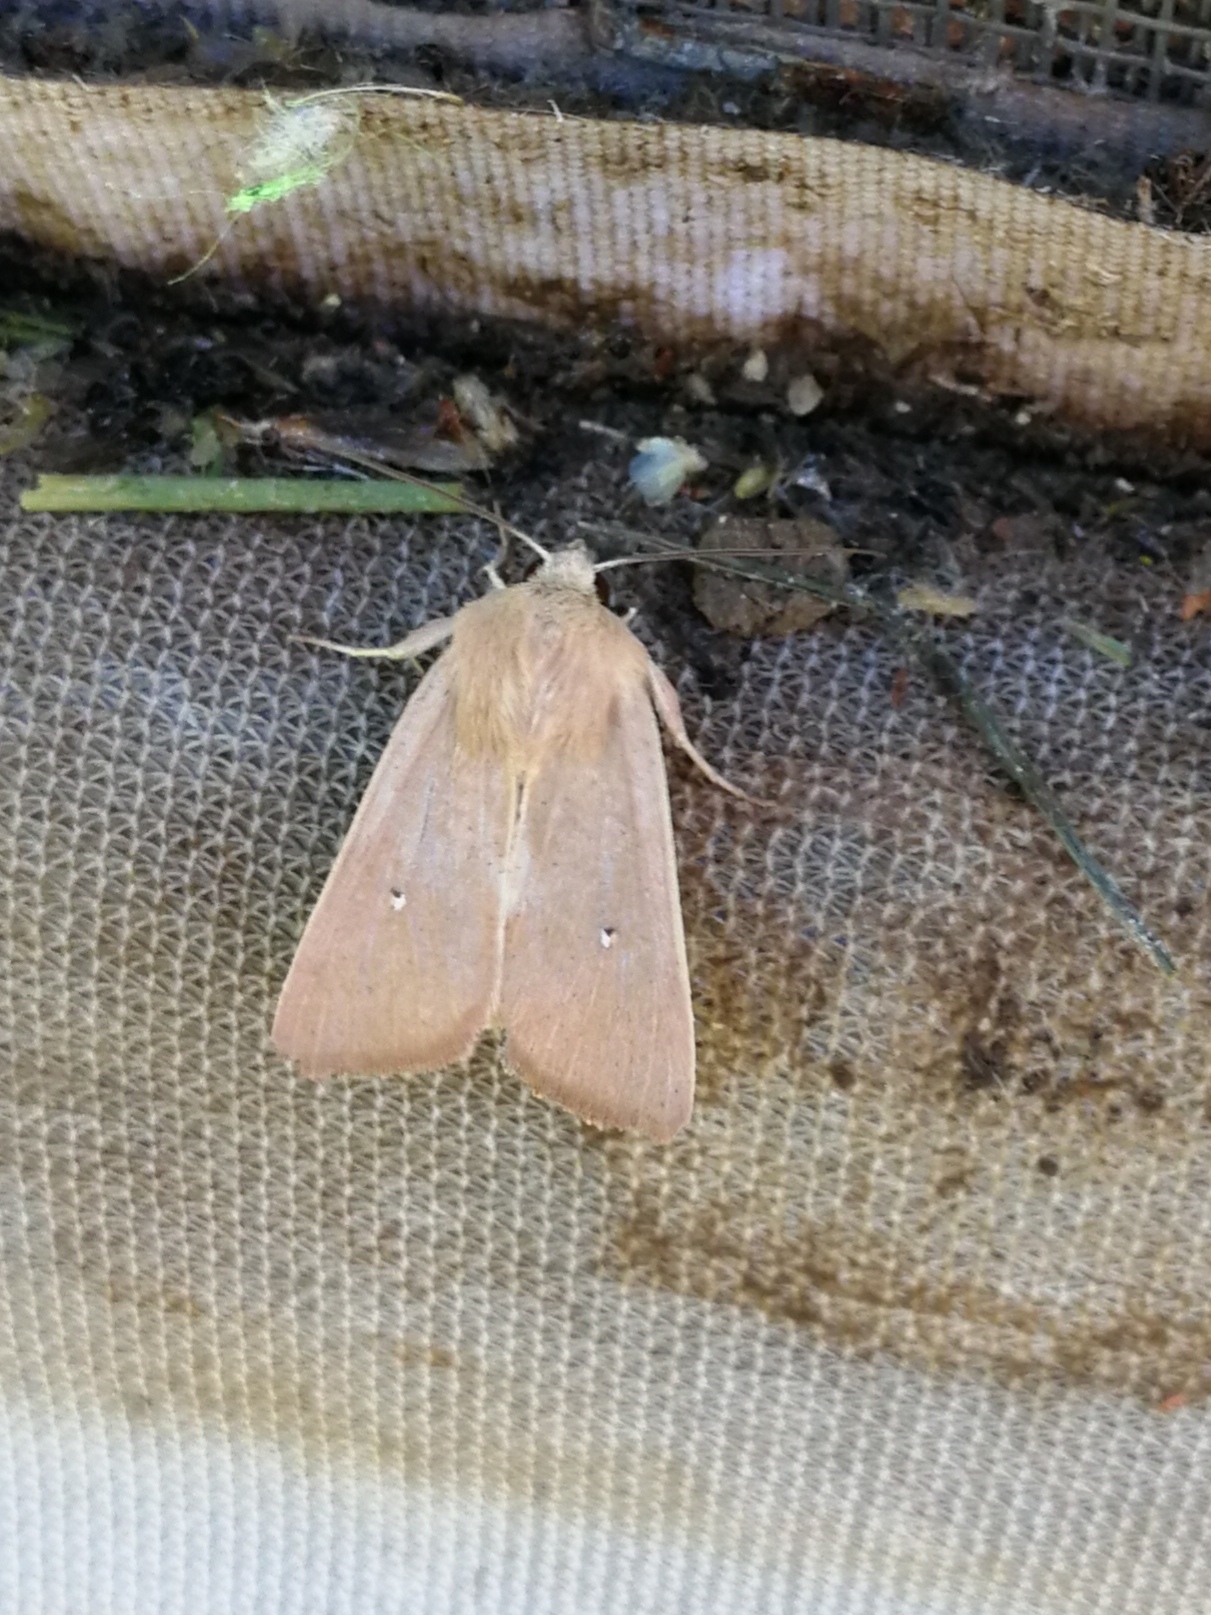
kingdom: Animalia
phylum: Arthropoda
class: Insecta
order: Lepidoptera
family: Noctuidae
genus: Mythimna
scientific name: Mythimna sicula
